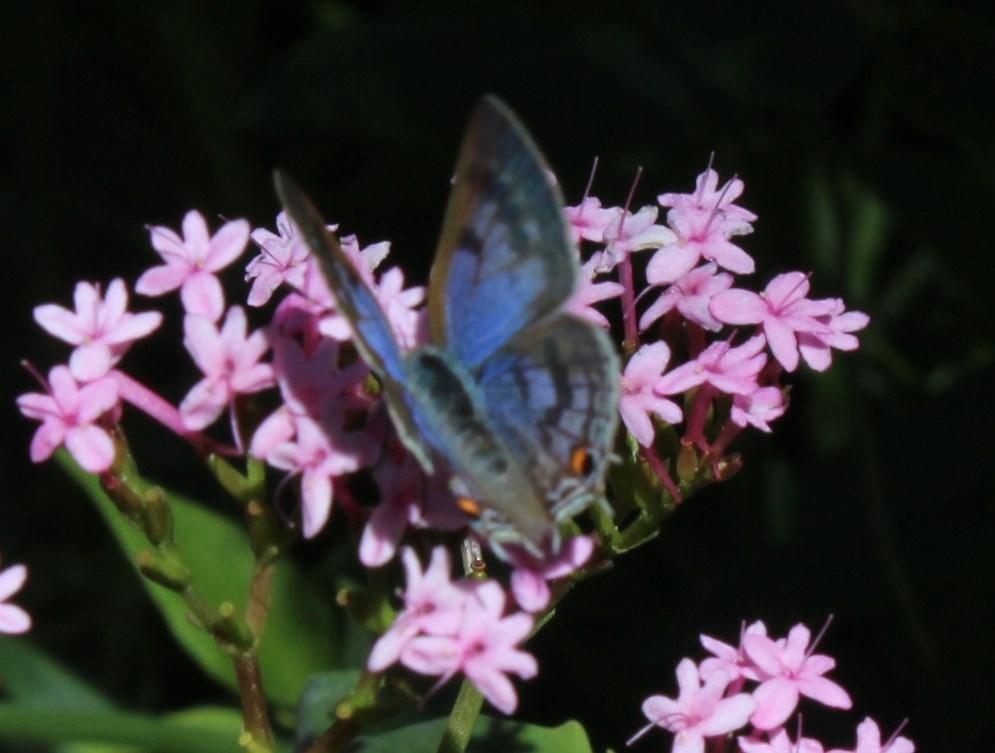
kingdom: Animalia
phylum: Arthropoda
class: Insecta
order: Lepidoptera
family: Lycaenidae
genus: Anthene
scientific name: Anthene definita
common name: Common ciliate blue
